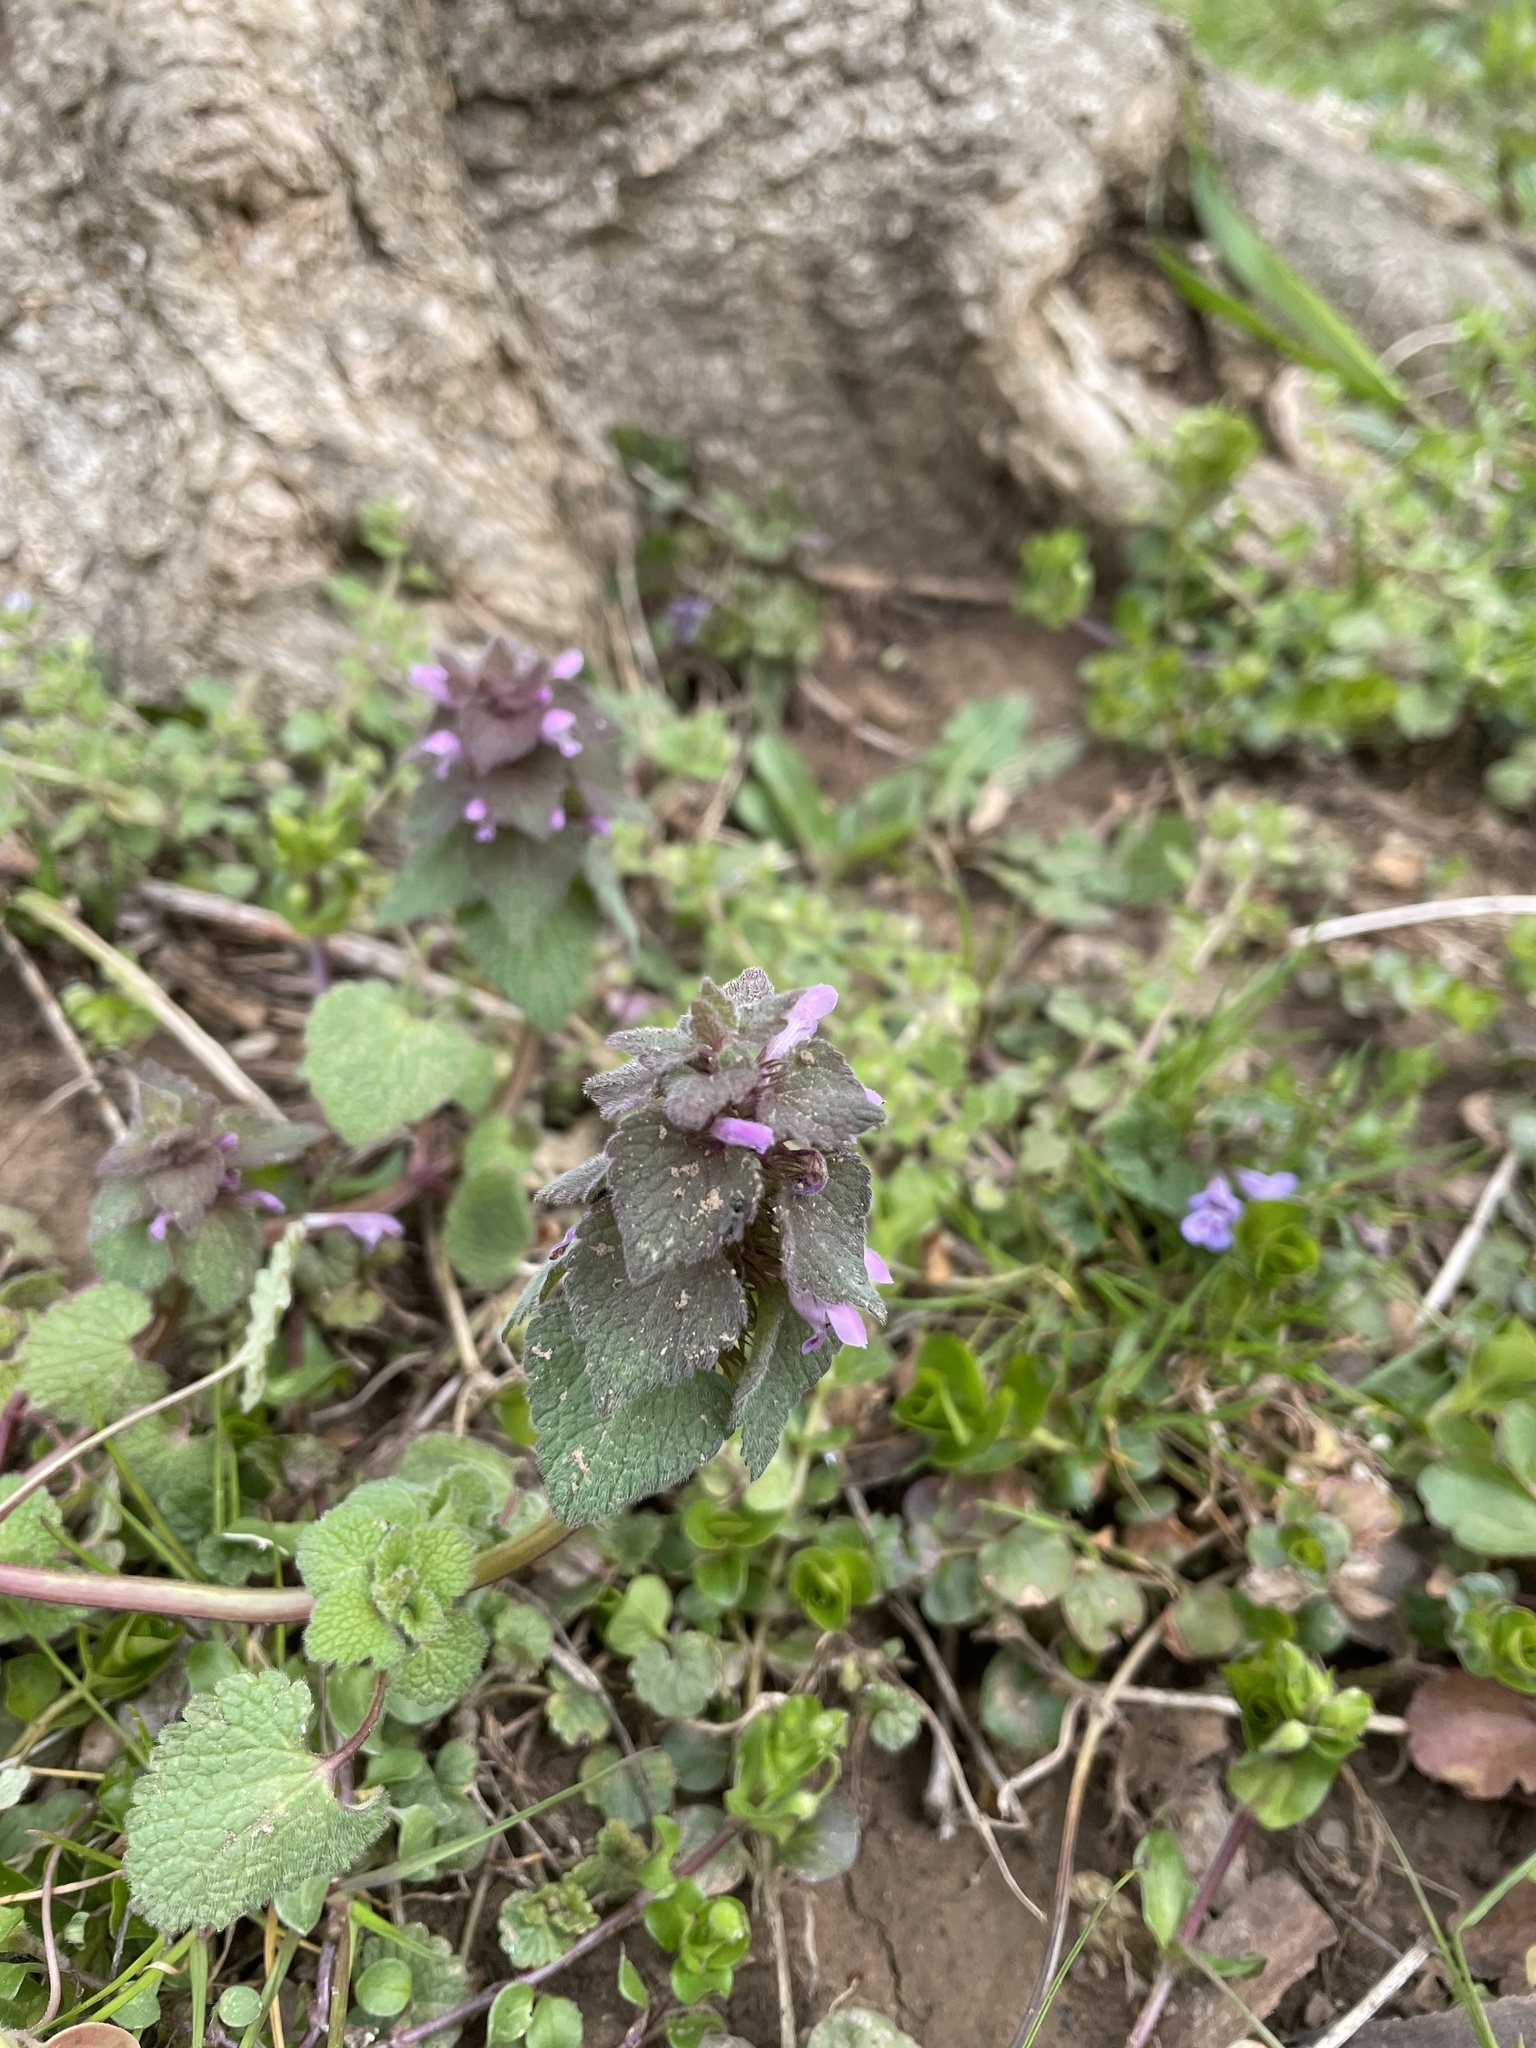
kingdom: Plantae
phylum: Tracheophyta
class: Magnoliopsida
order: Lamiales
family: Lamiaceae
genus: Lamium
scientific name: Lamium purpureum
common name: Red dead-nettle
